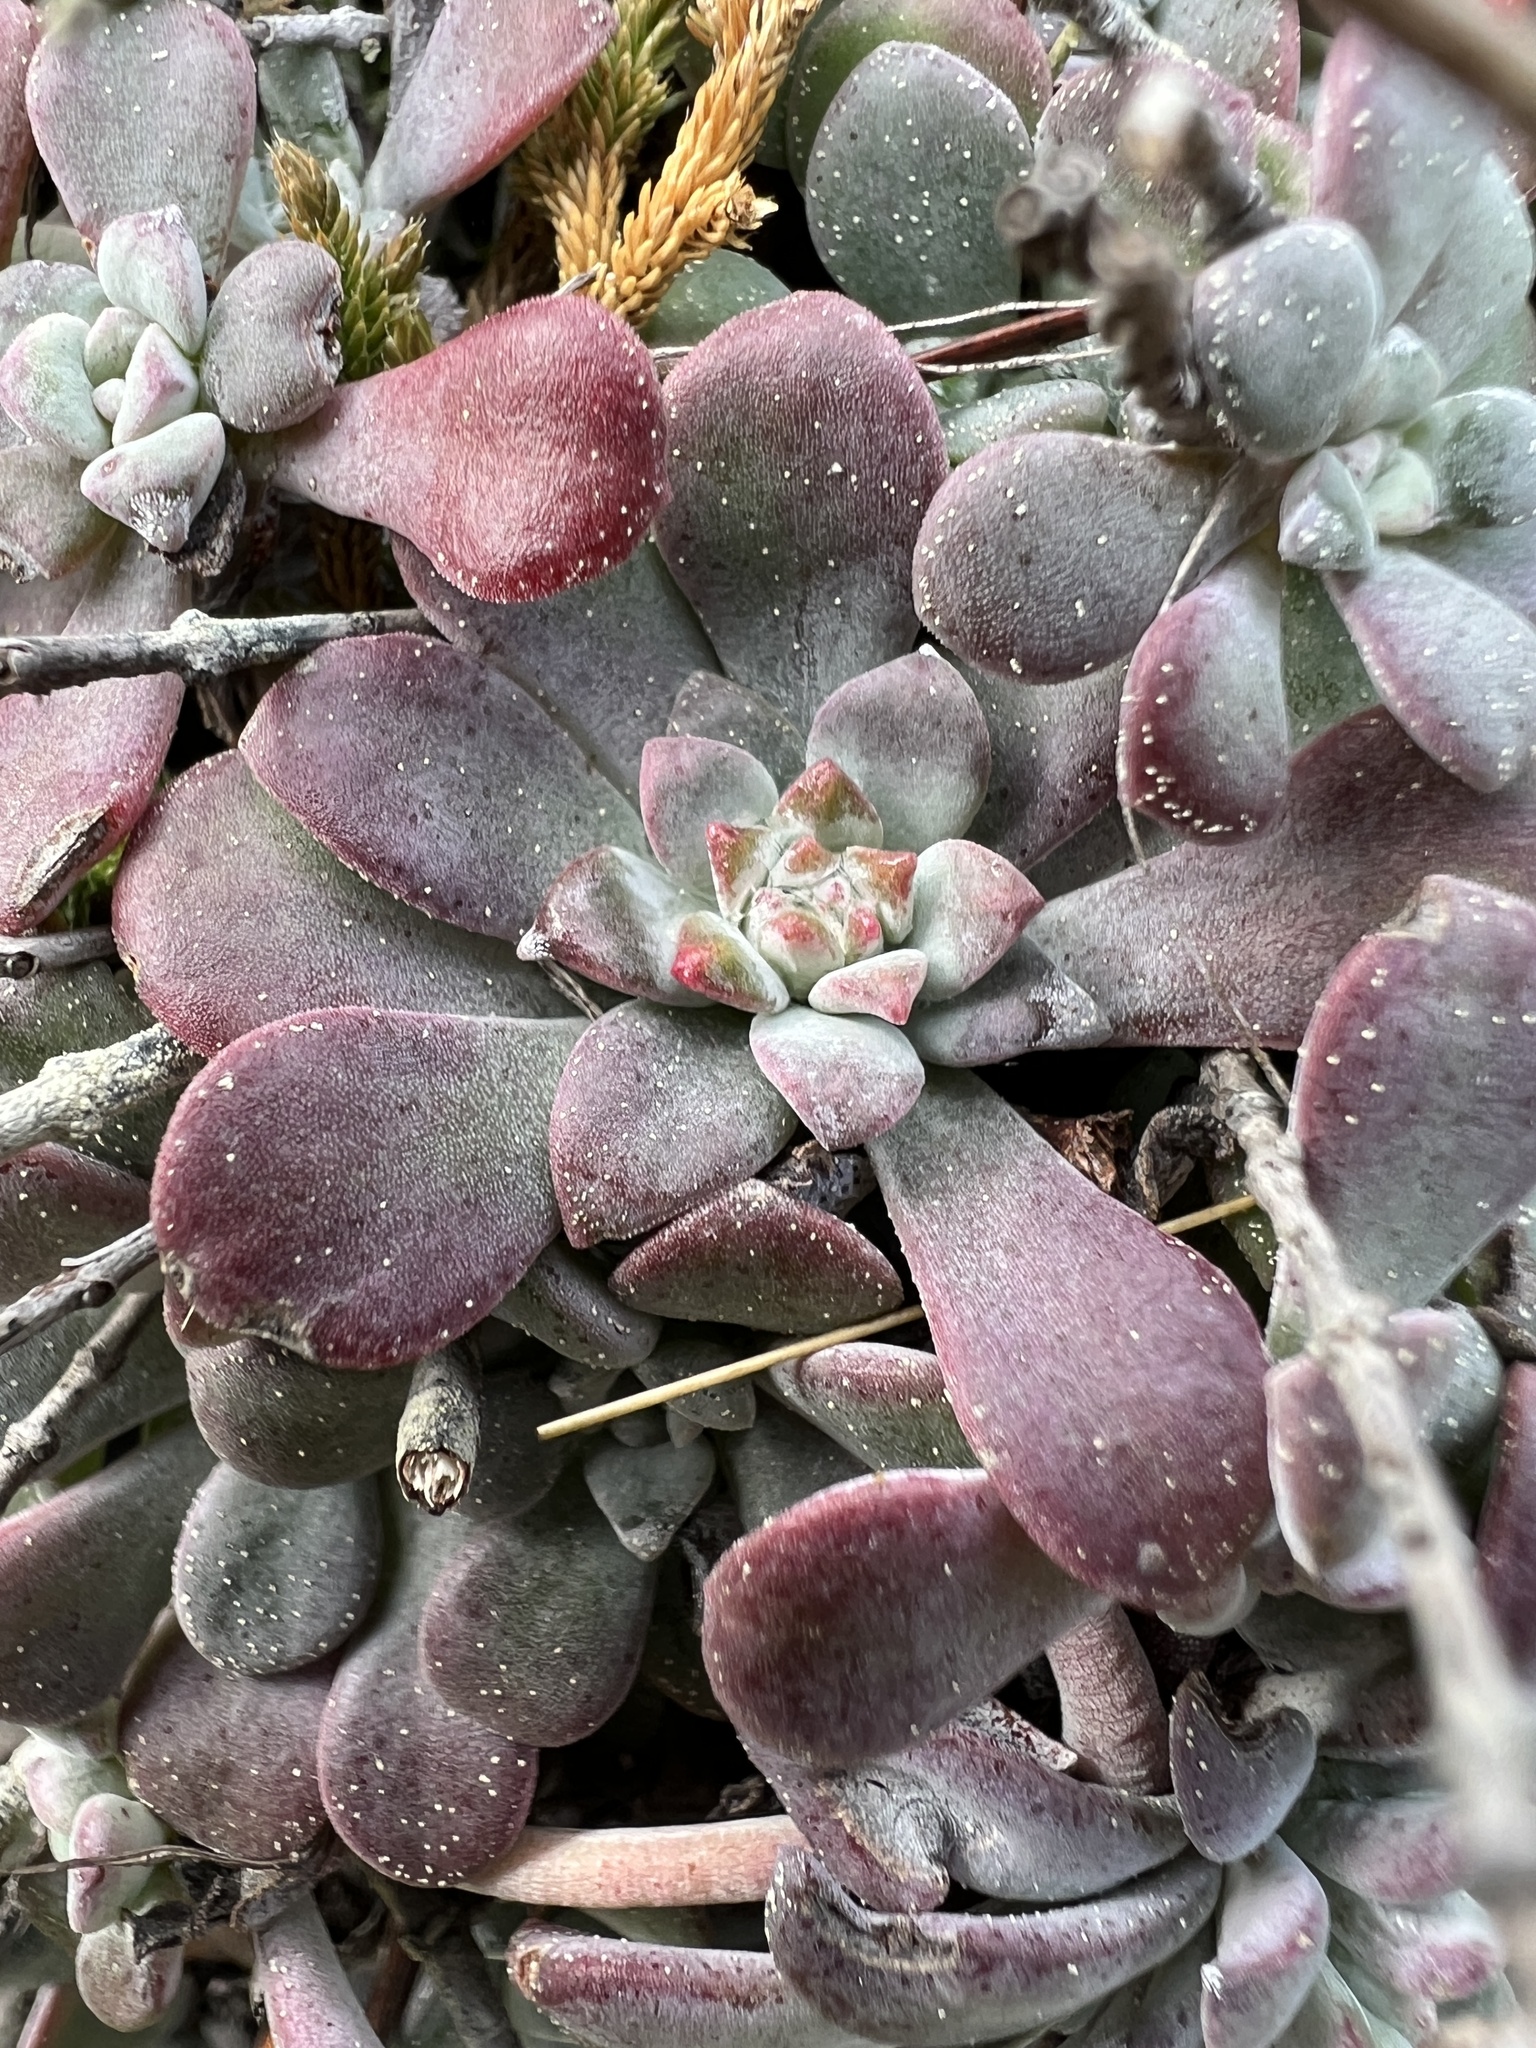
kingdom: Plantae
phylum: Tracheophyta
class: Magnoliopsida
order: Saxifragales
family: Crassulaceae
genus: Sedum
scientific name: Sedum spathulifolium
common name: Colorado stonecrop
